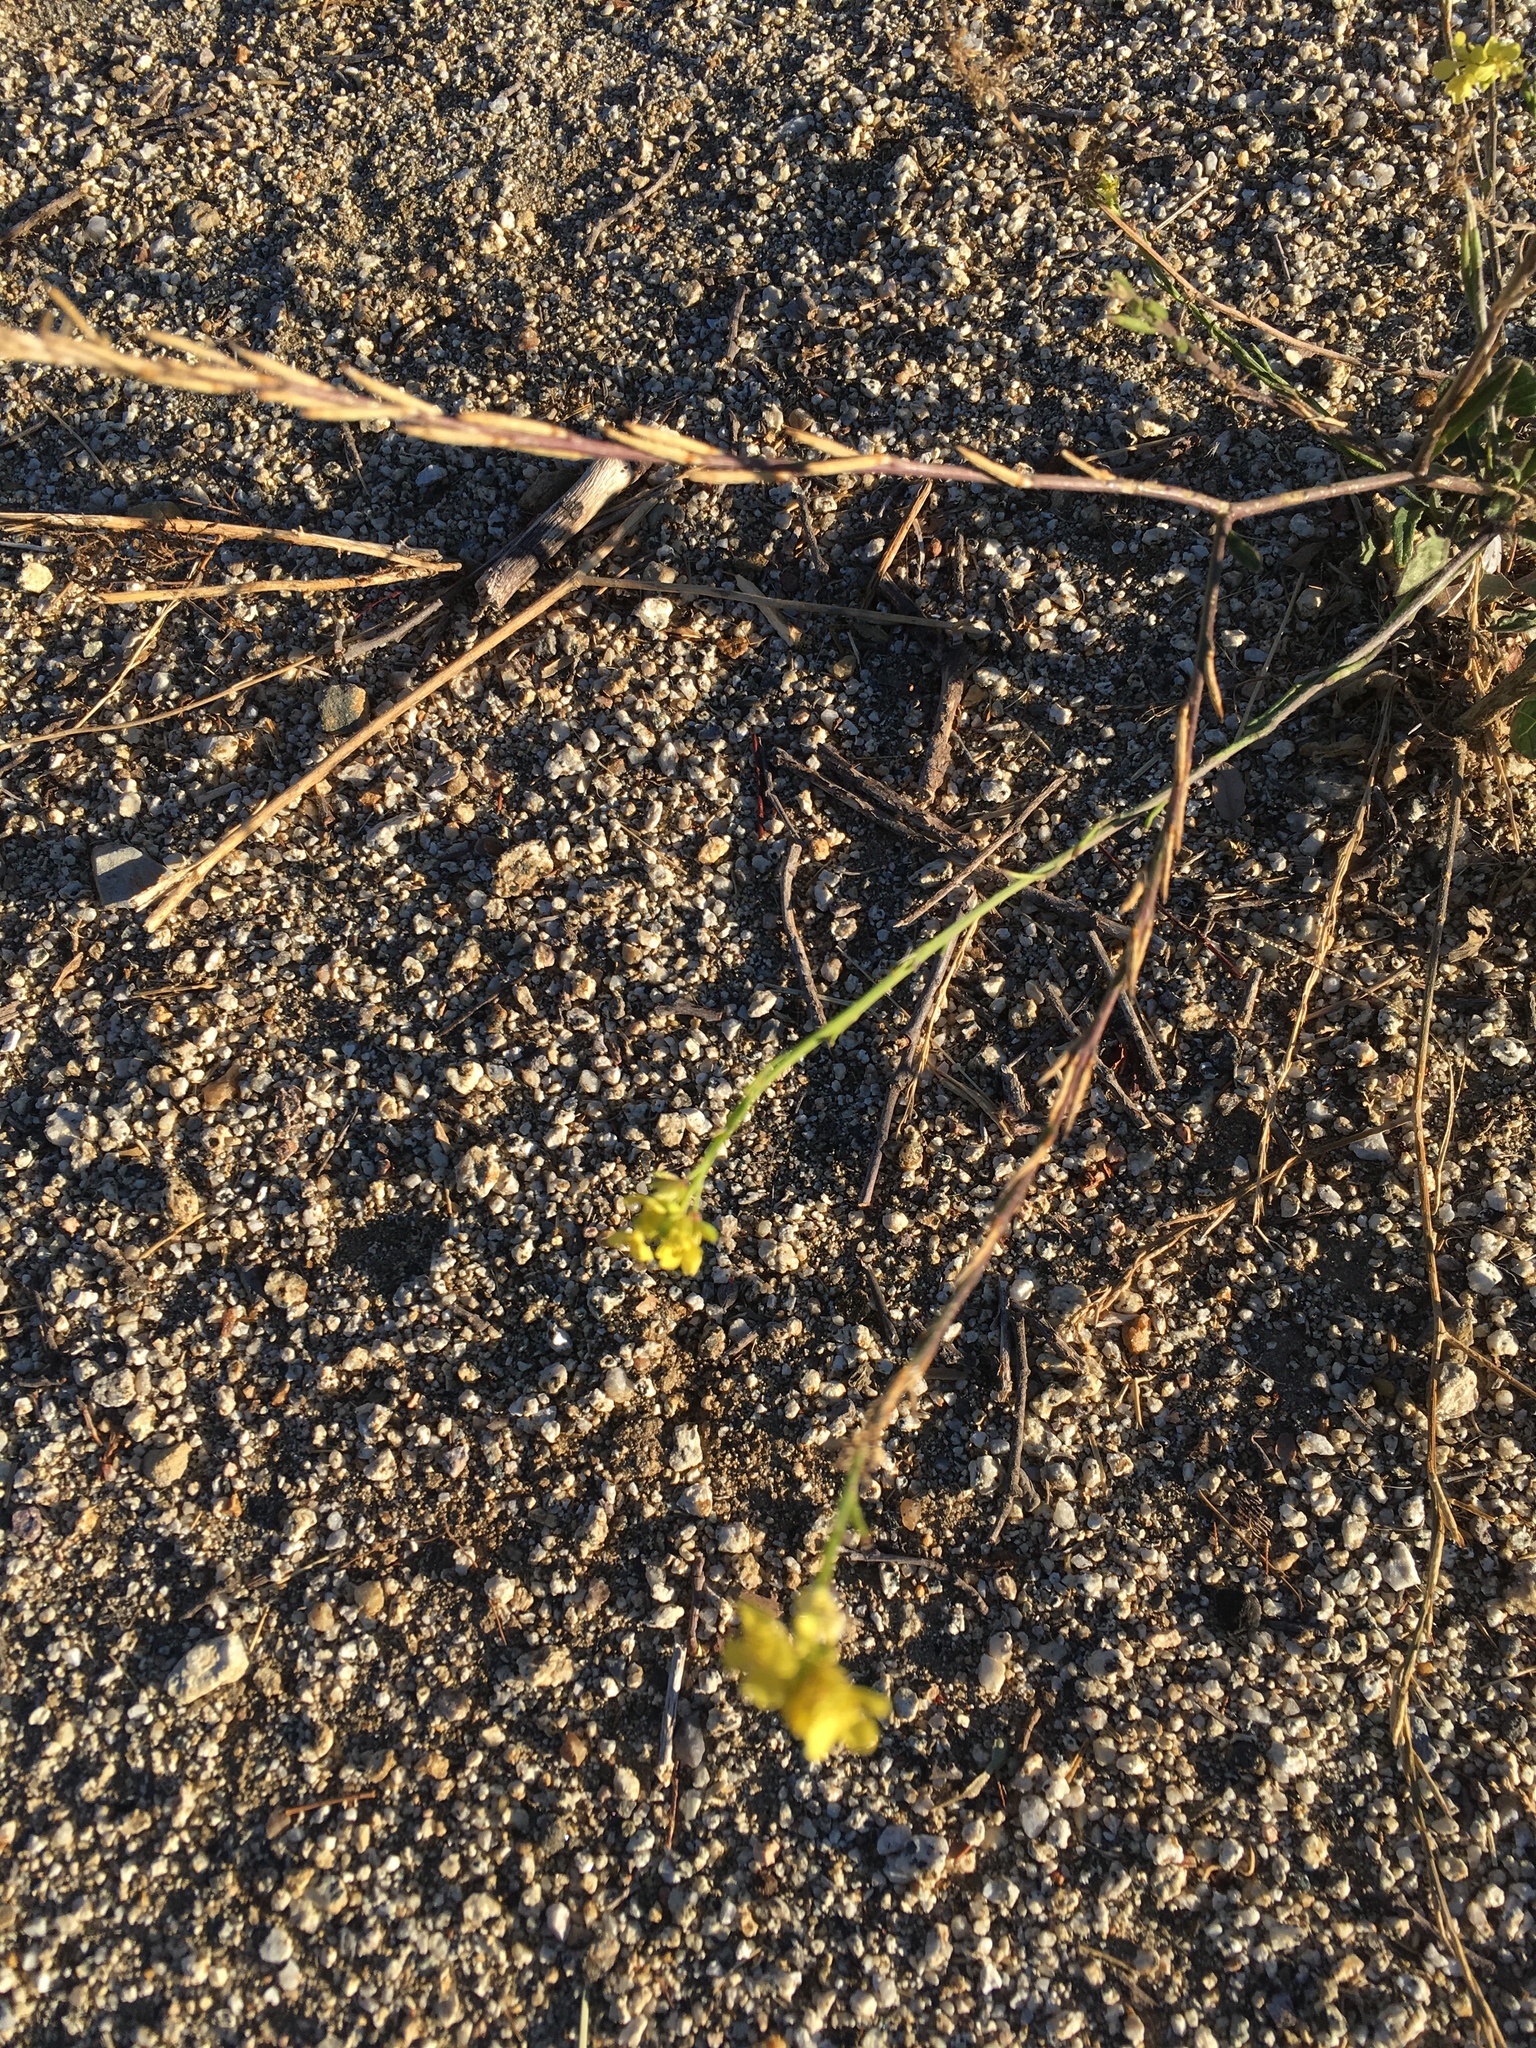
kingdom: Plantae
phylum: Tracheophyta
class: Magnoliopsida
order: Brassicales
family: Brassicaceae
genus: Hirschfeldia
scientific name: Hirschfeldia incana
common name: Hoary mustard
